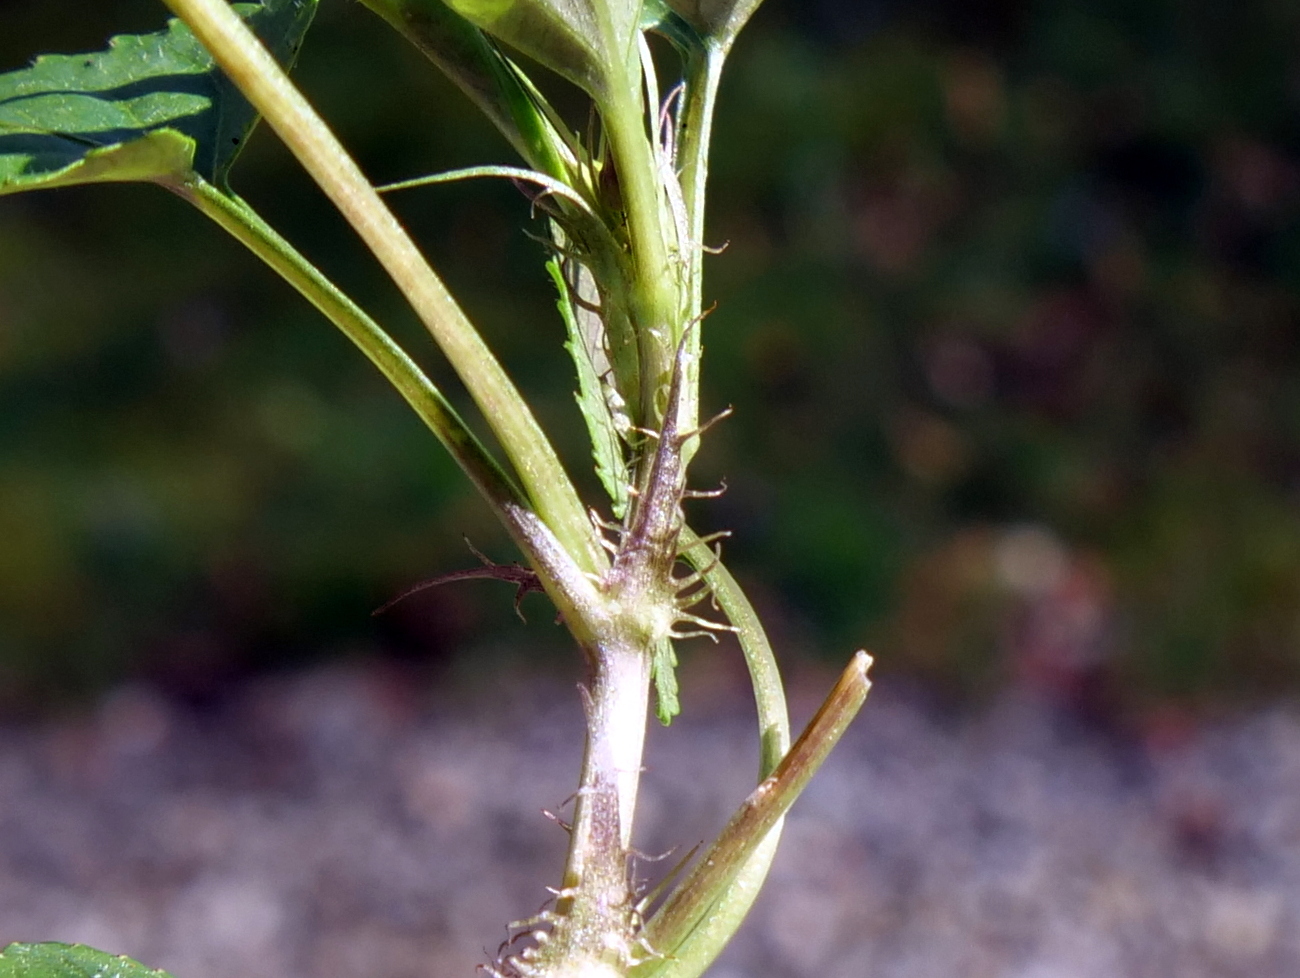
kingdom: Plantae
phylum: Tracheophyta
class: Magnoliopsida
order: Malpighiales
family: Violaceae
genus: Viola
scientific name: Viola reichenbachiana
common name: Early dog-violet
